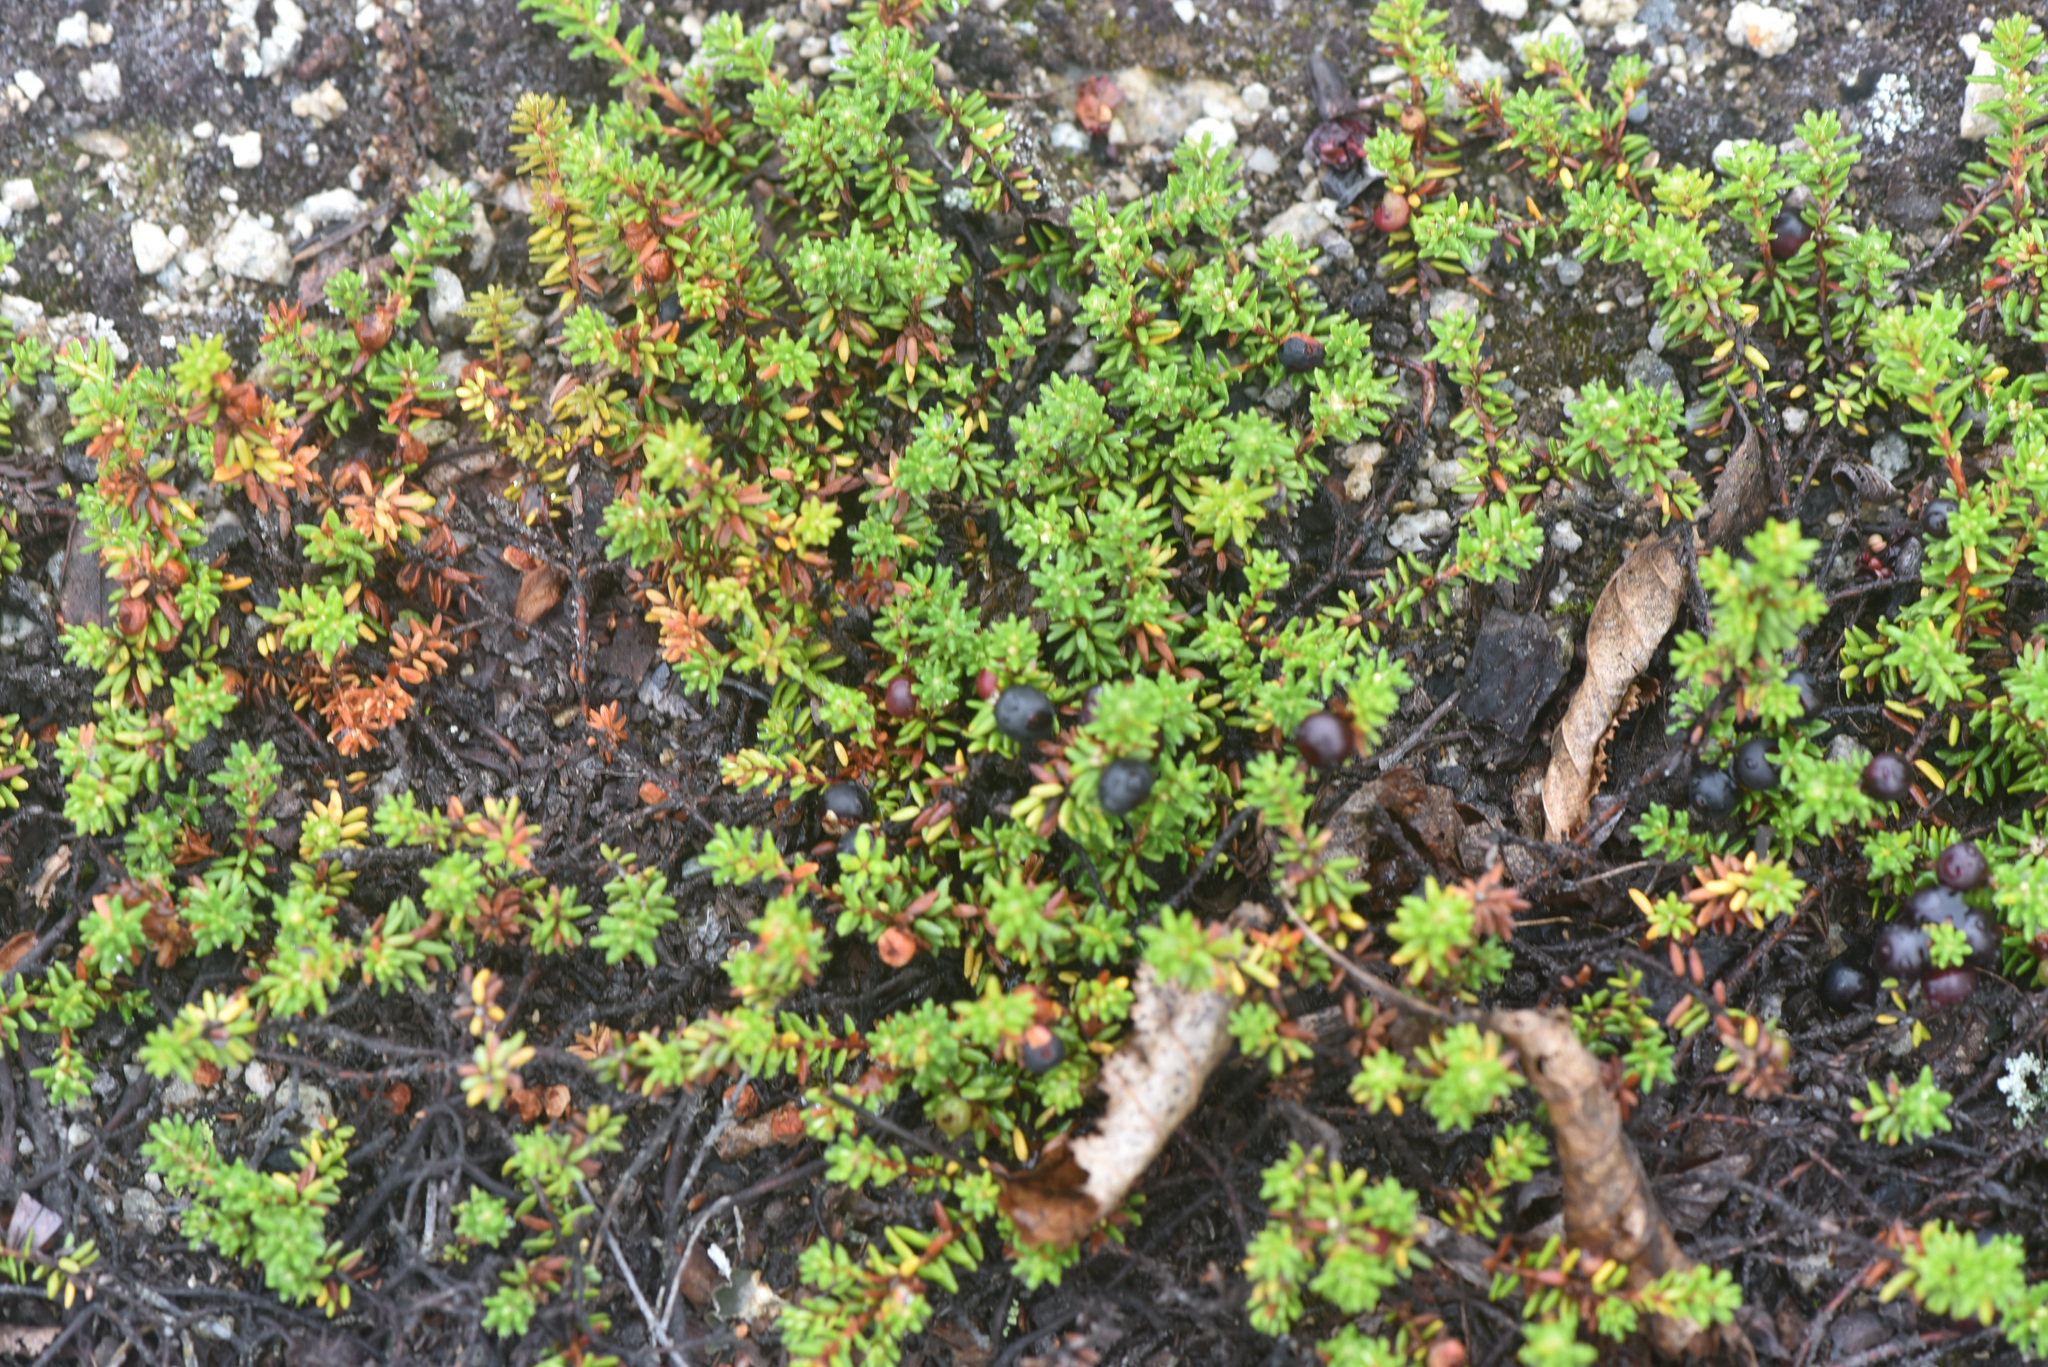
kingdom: Plantae
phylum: Tracheophyta
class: Magnoliopsida
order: Ericales
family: Ericaceae
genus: Empetrum
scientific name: Empetrum nigrum
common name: Black crowberry
